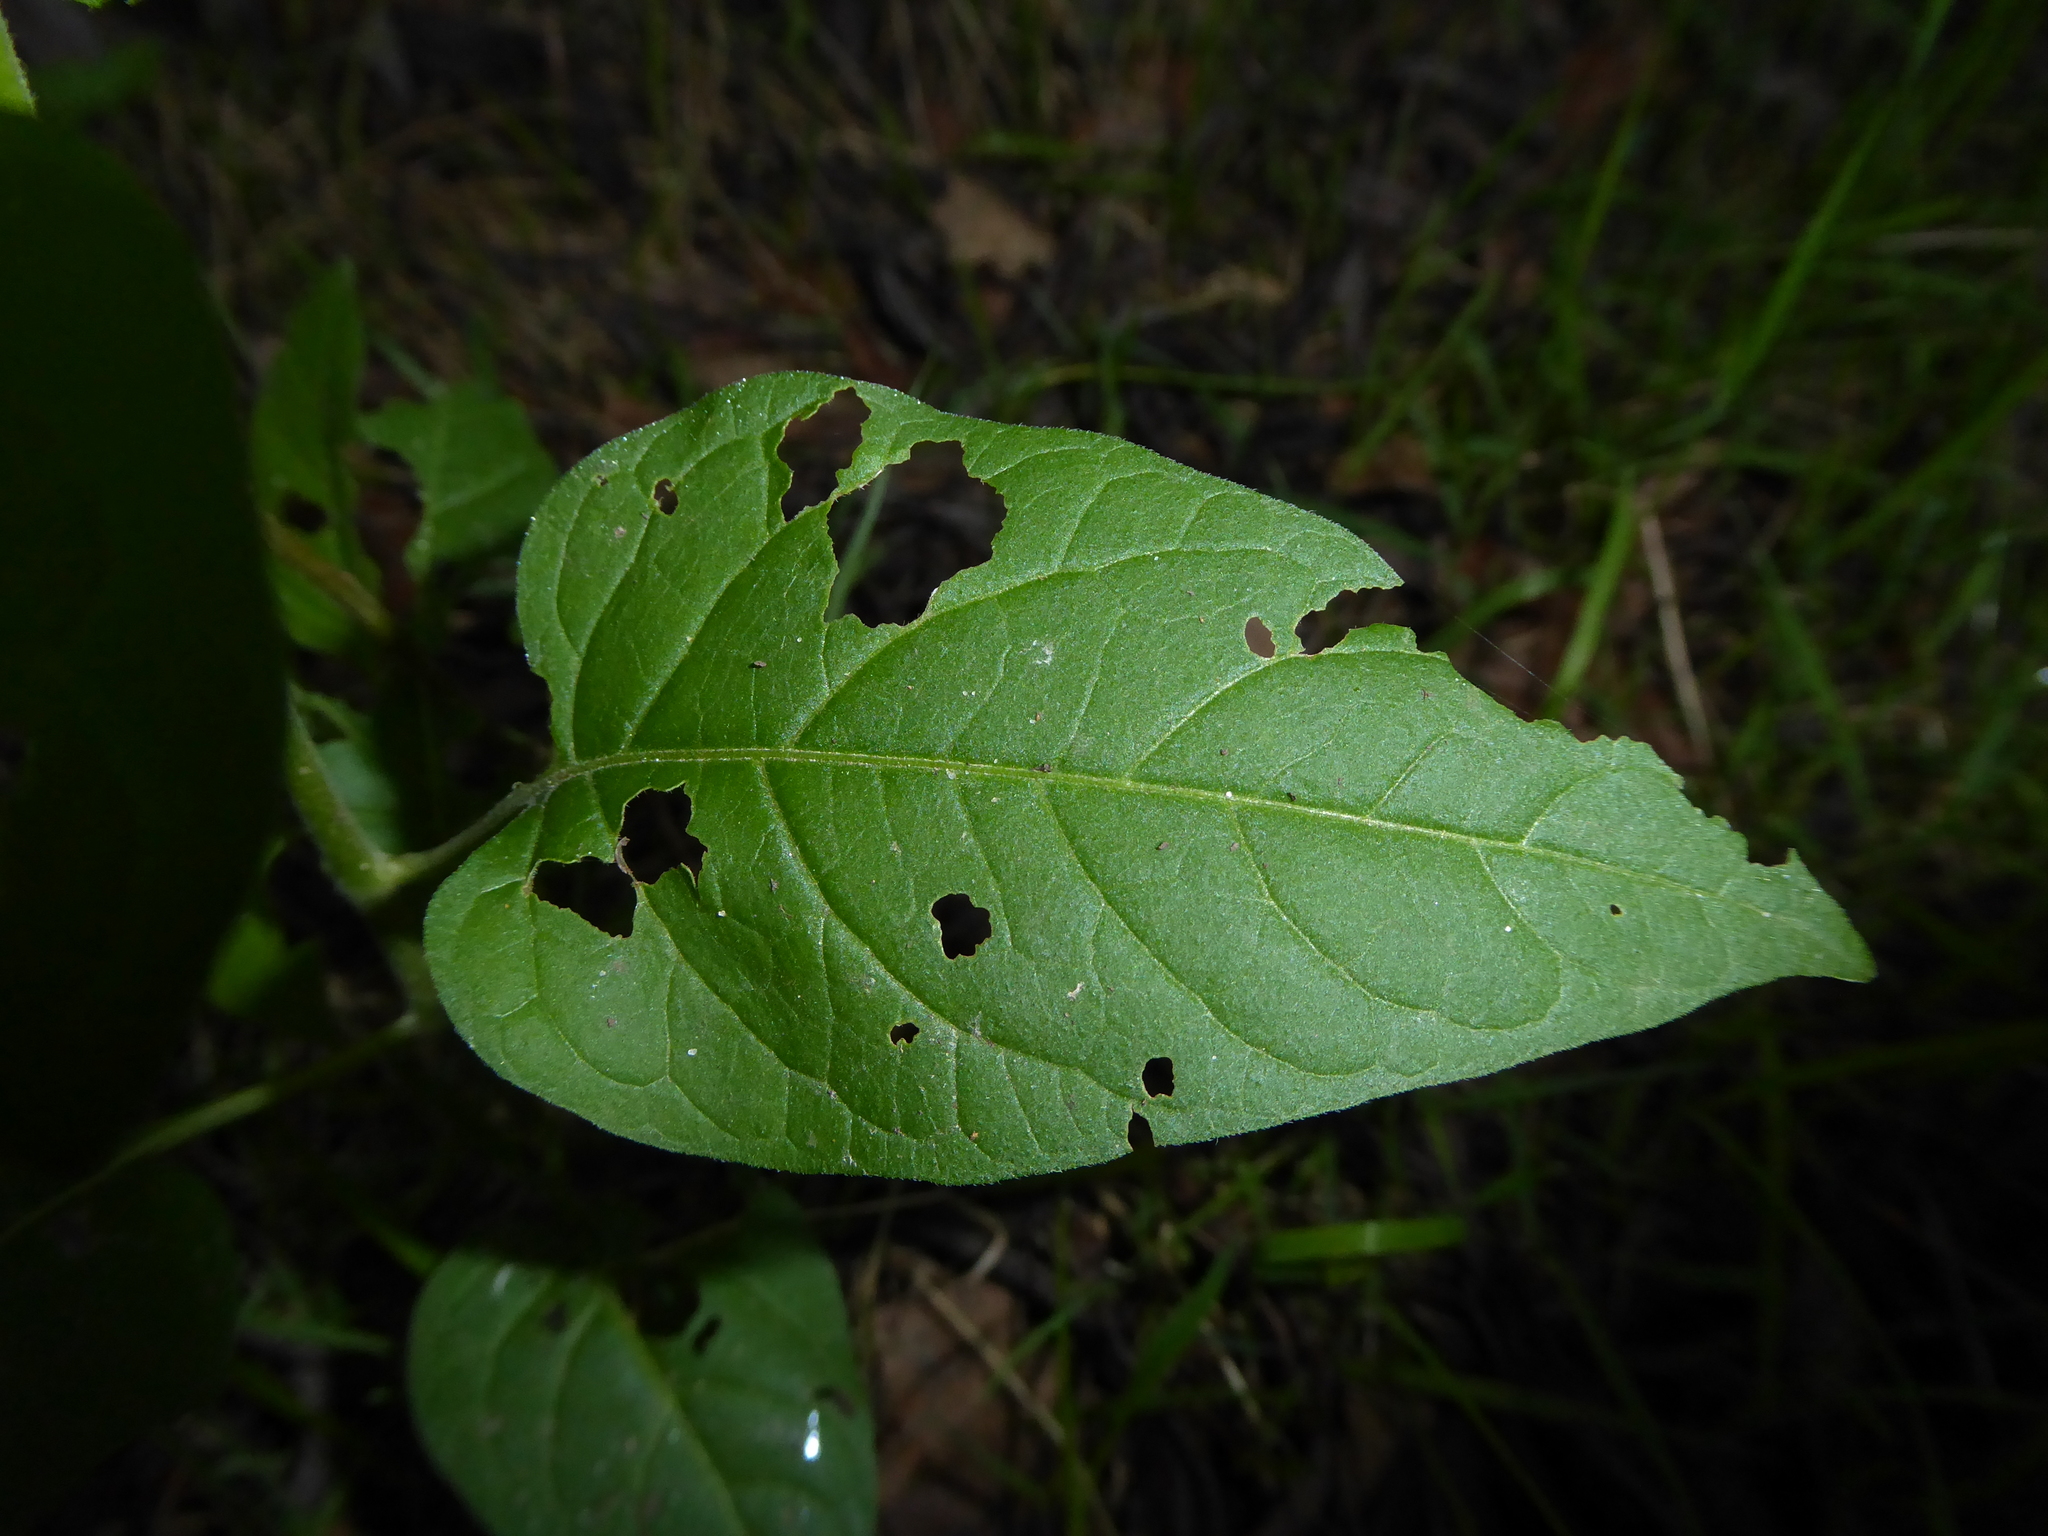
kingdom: Plantae
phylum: Tracheophyta
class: Magnoliopsida
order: Solanales
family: Solanaceae
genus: Solanum
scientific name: Solanum dulcamara
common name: Climbing nightshade
